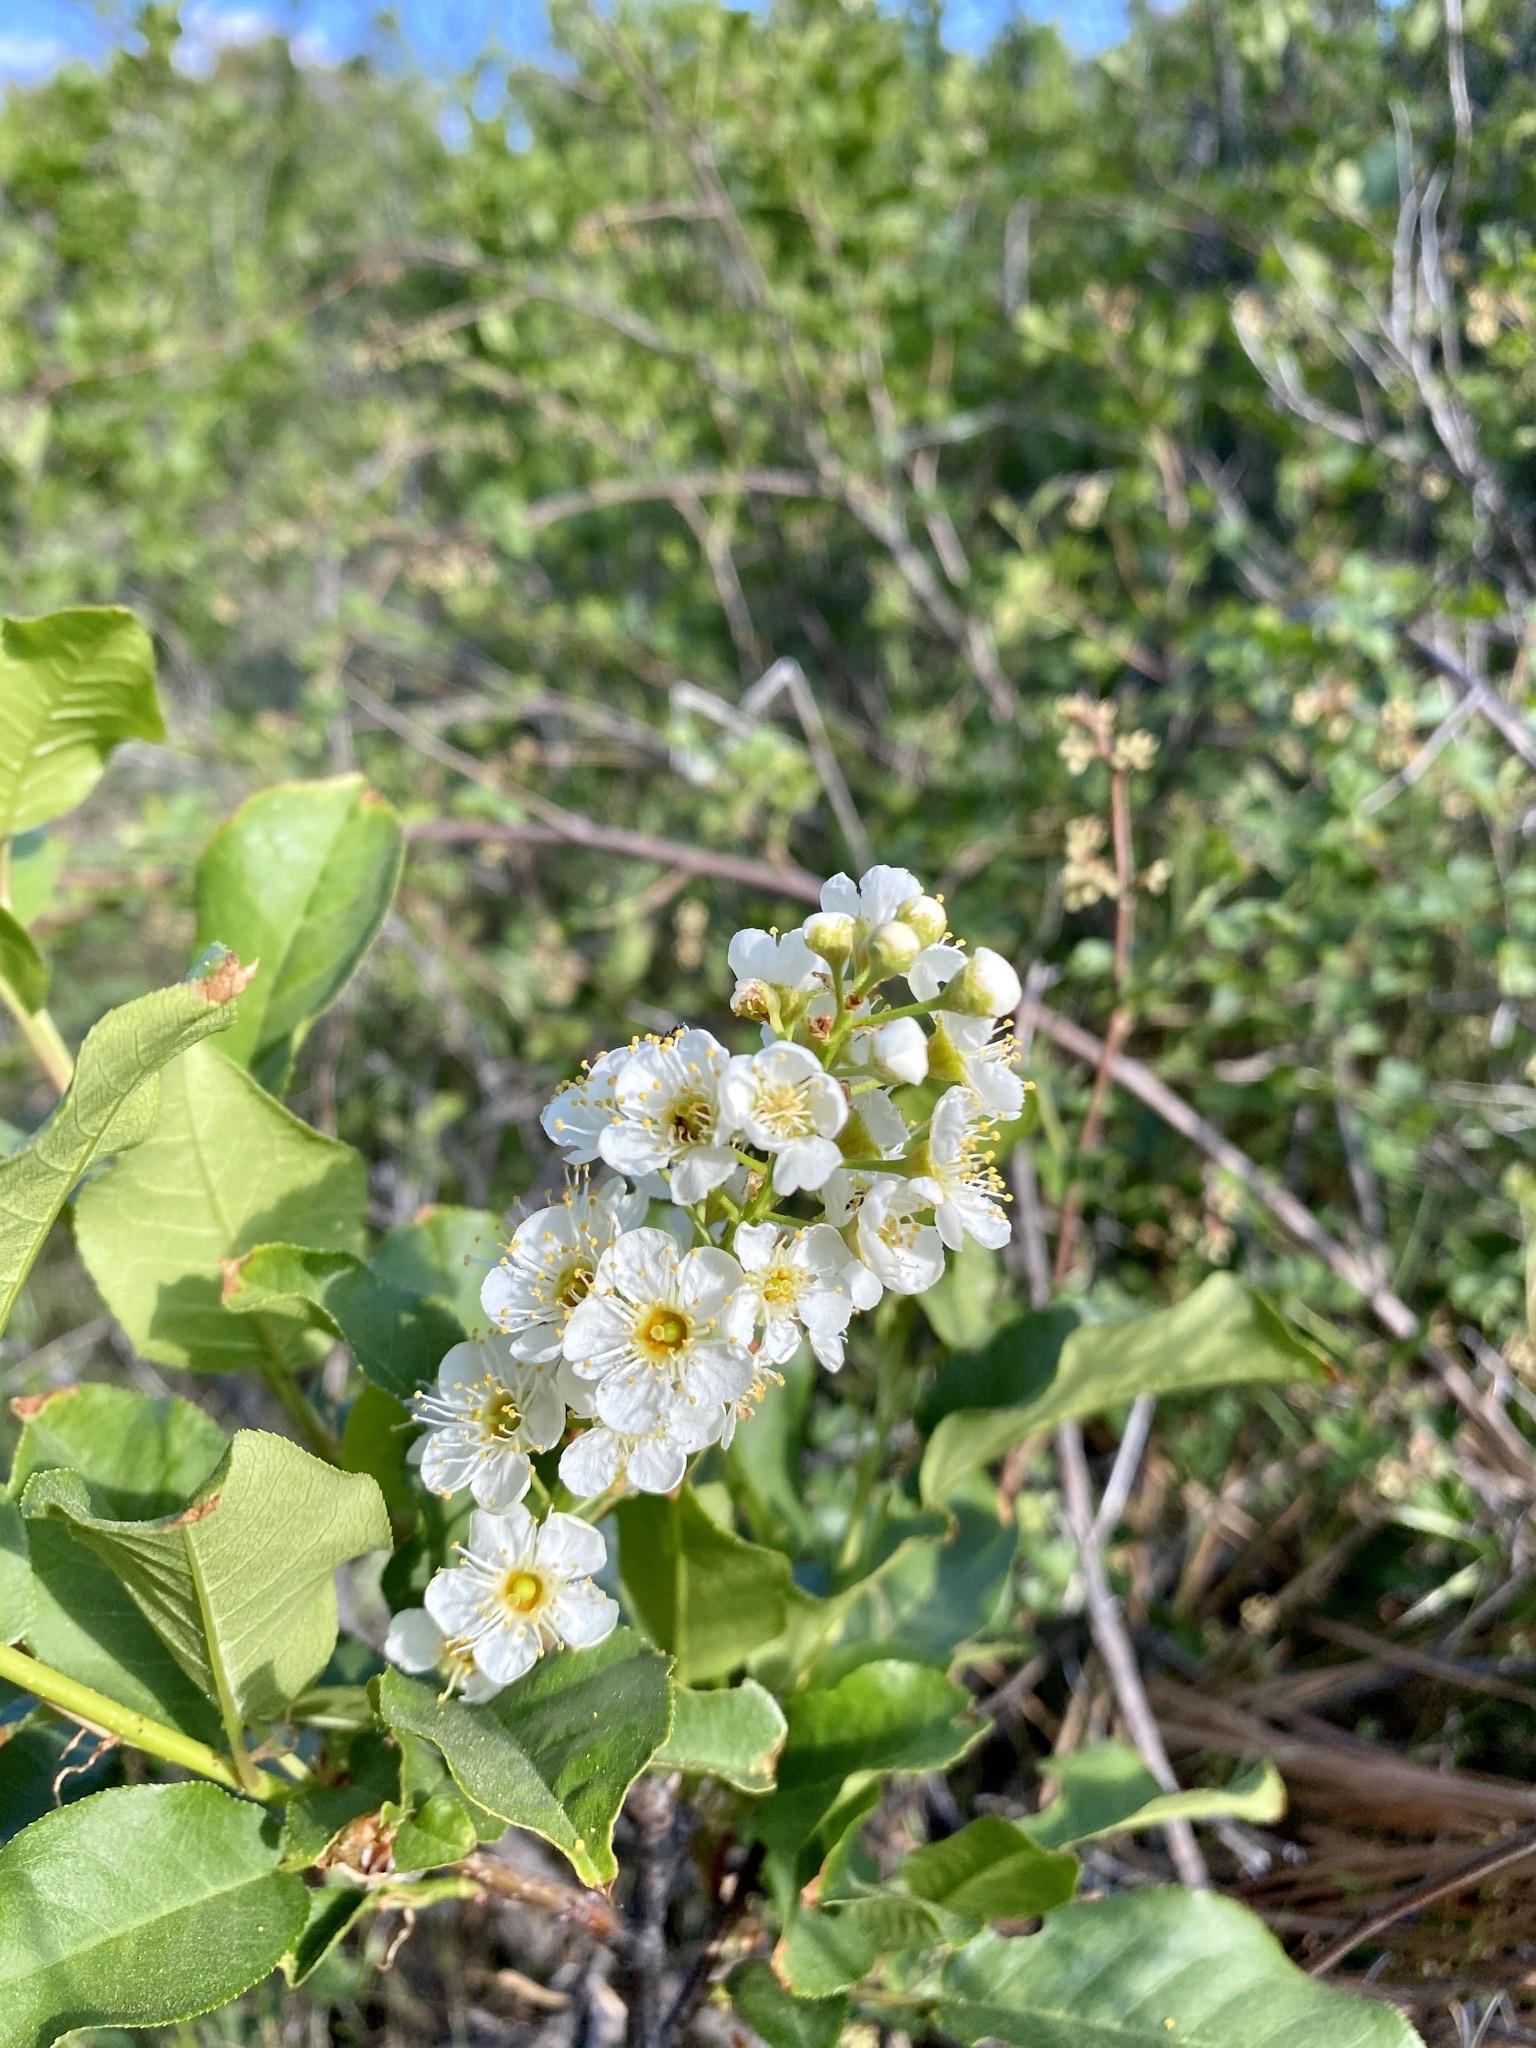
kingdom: Plantae
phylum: Tracheophyta
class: Magnoliopsida
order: Rosales
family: Rosaceae
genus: Prunus
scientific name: Prunus virginiana
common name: Chokecherry
